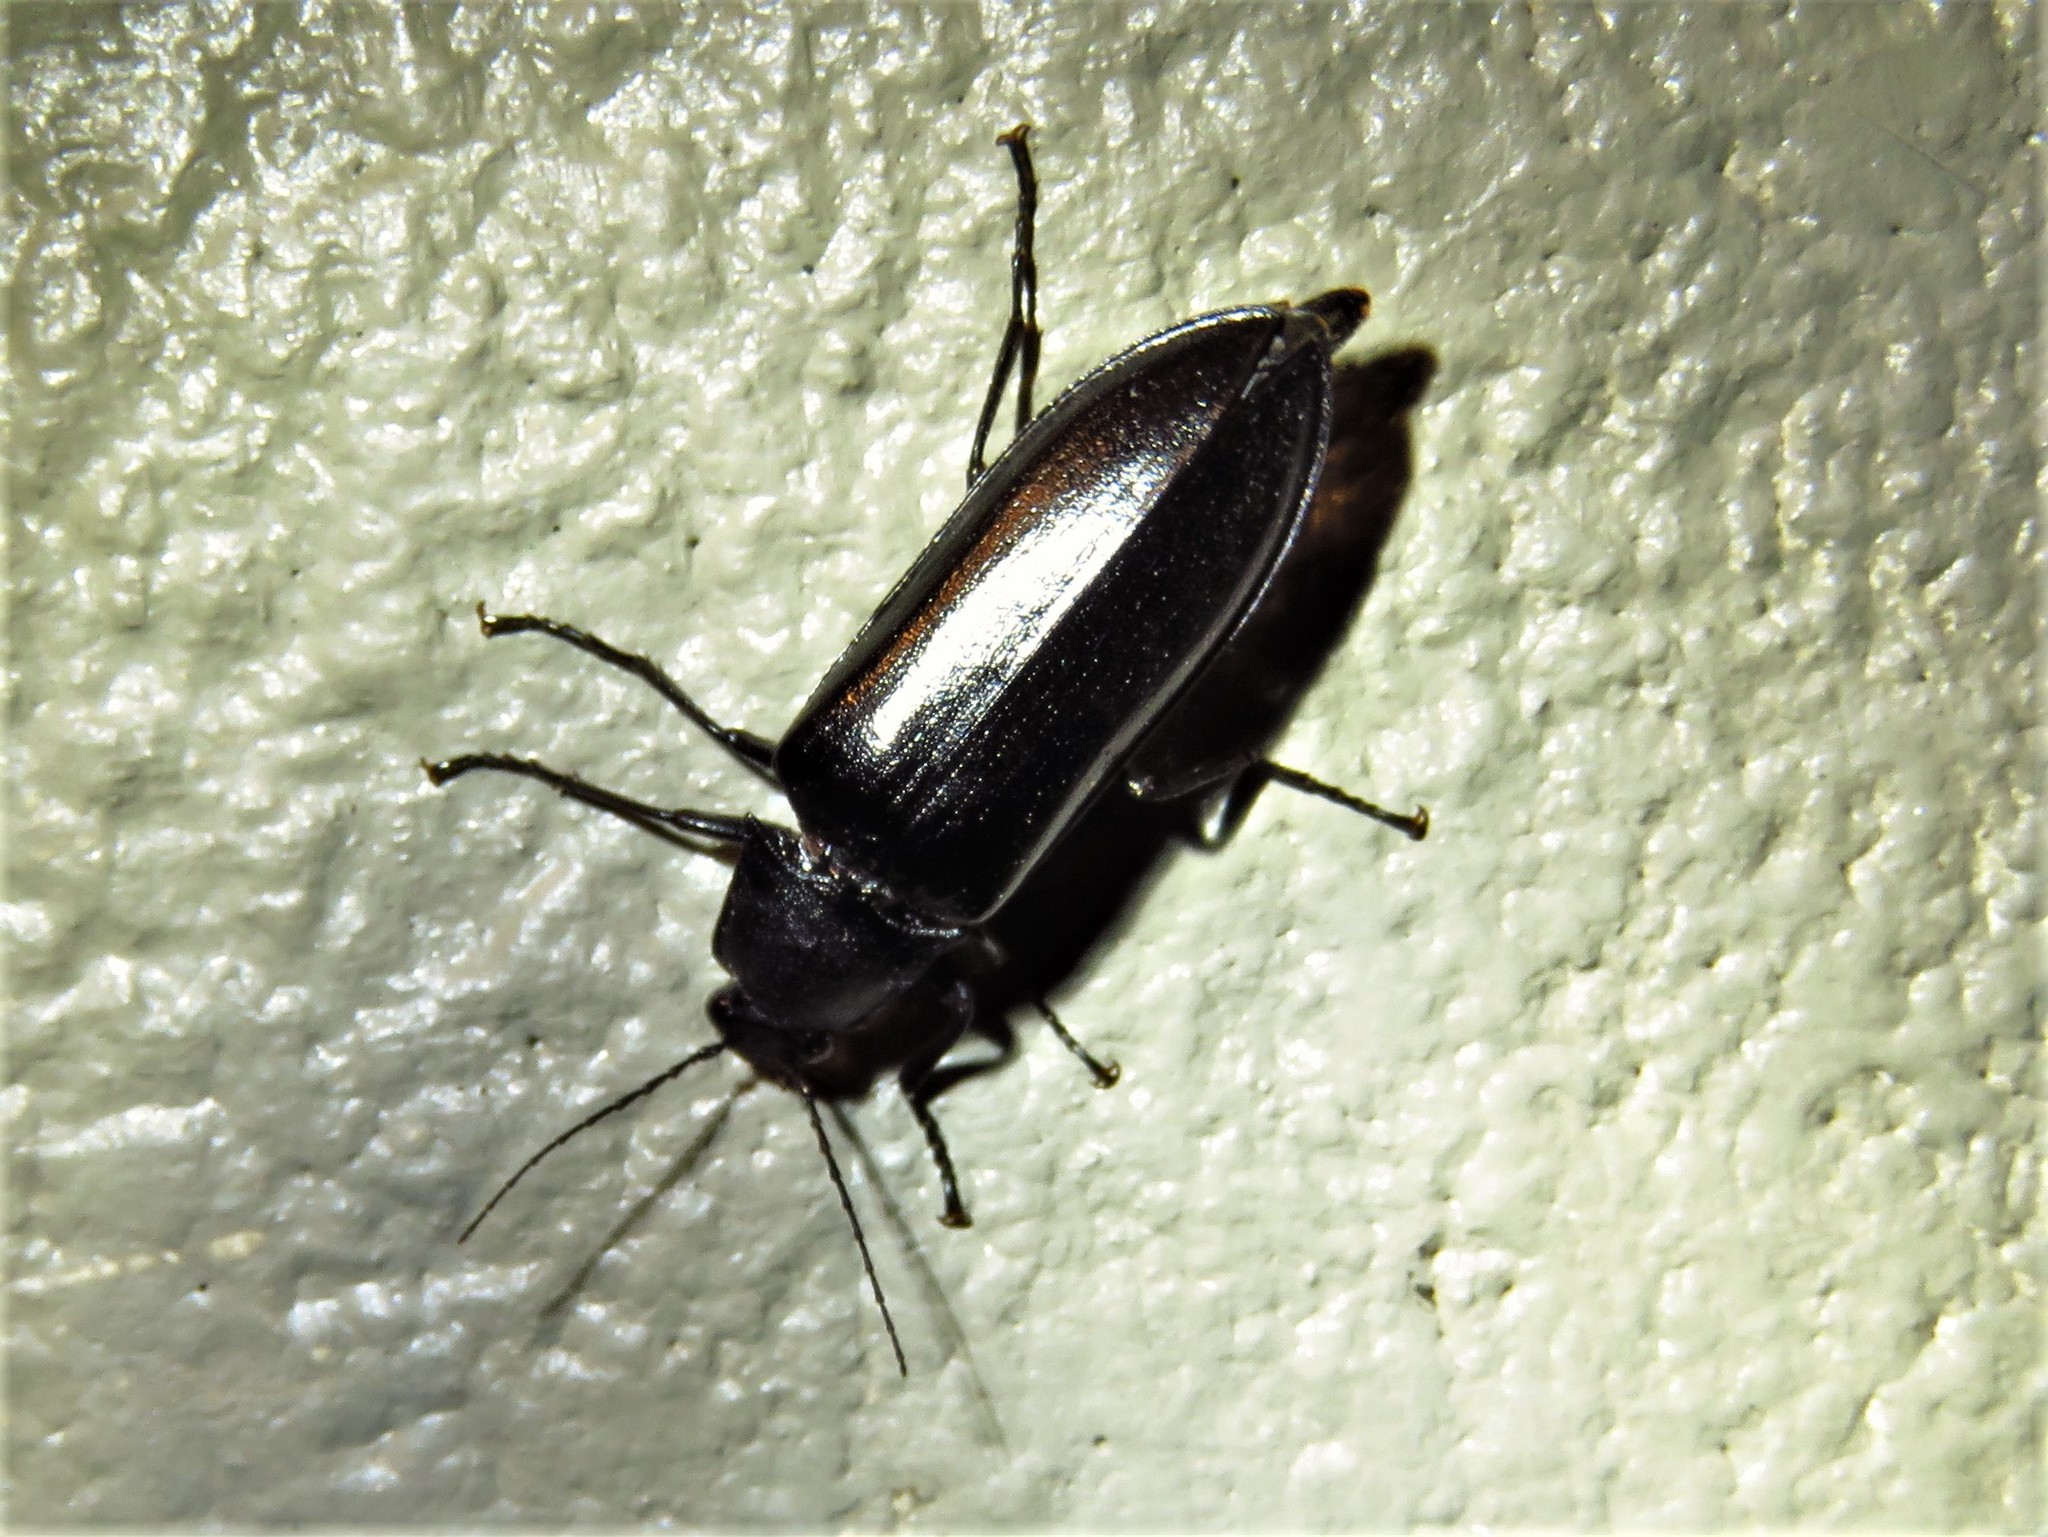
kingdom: Animalia
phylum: Arthropoda
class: Insecta
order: Coleoptera
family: Elateridae
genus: Perissarthron
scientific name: Perissarthron
